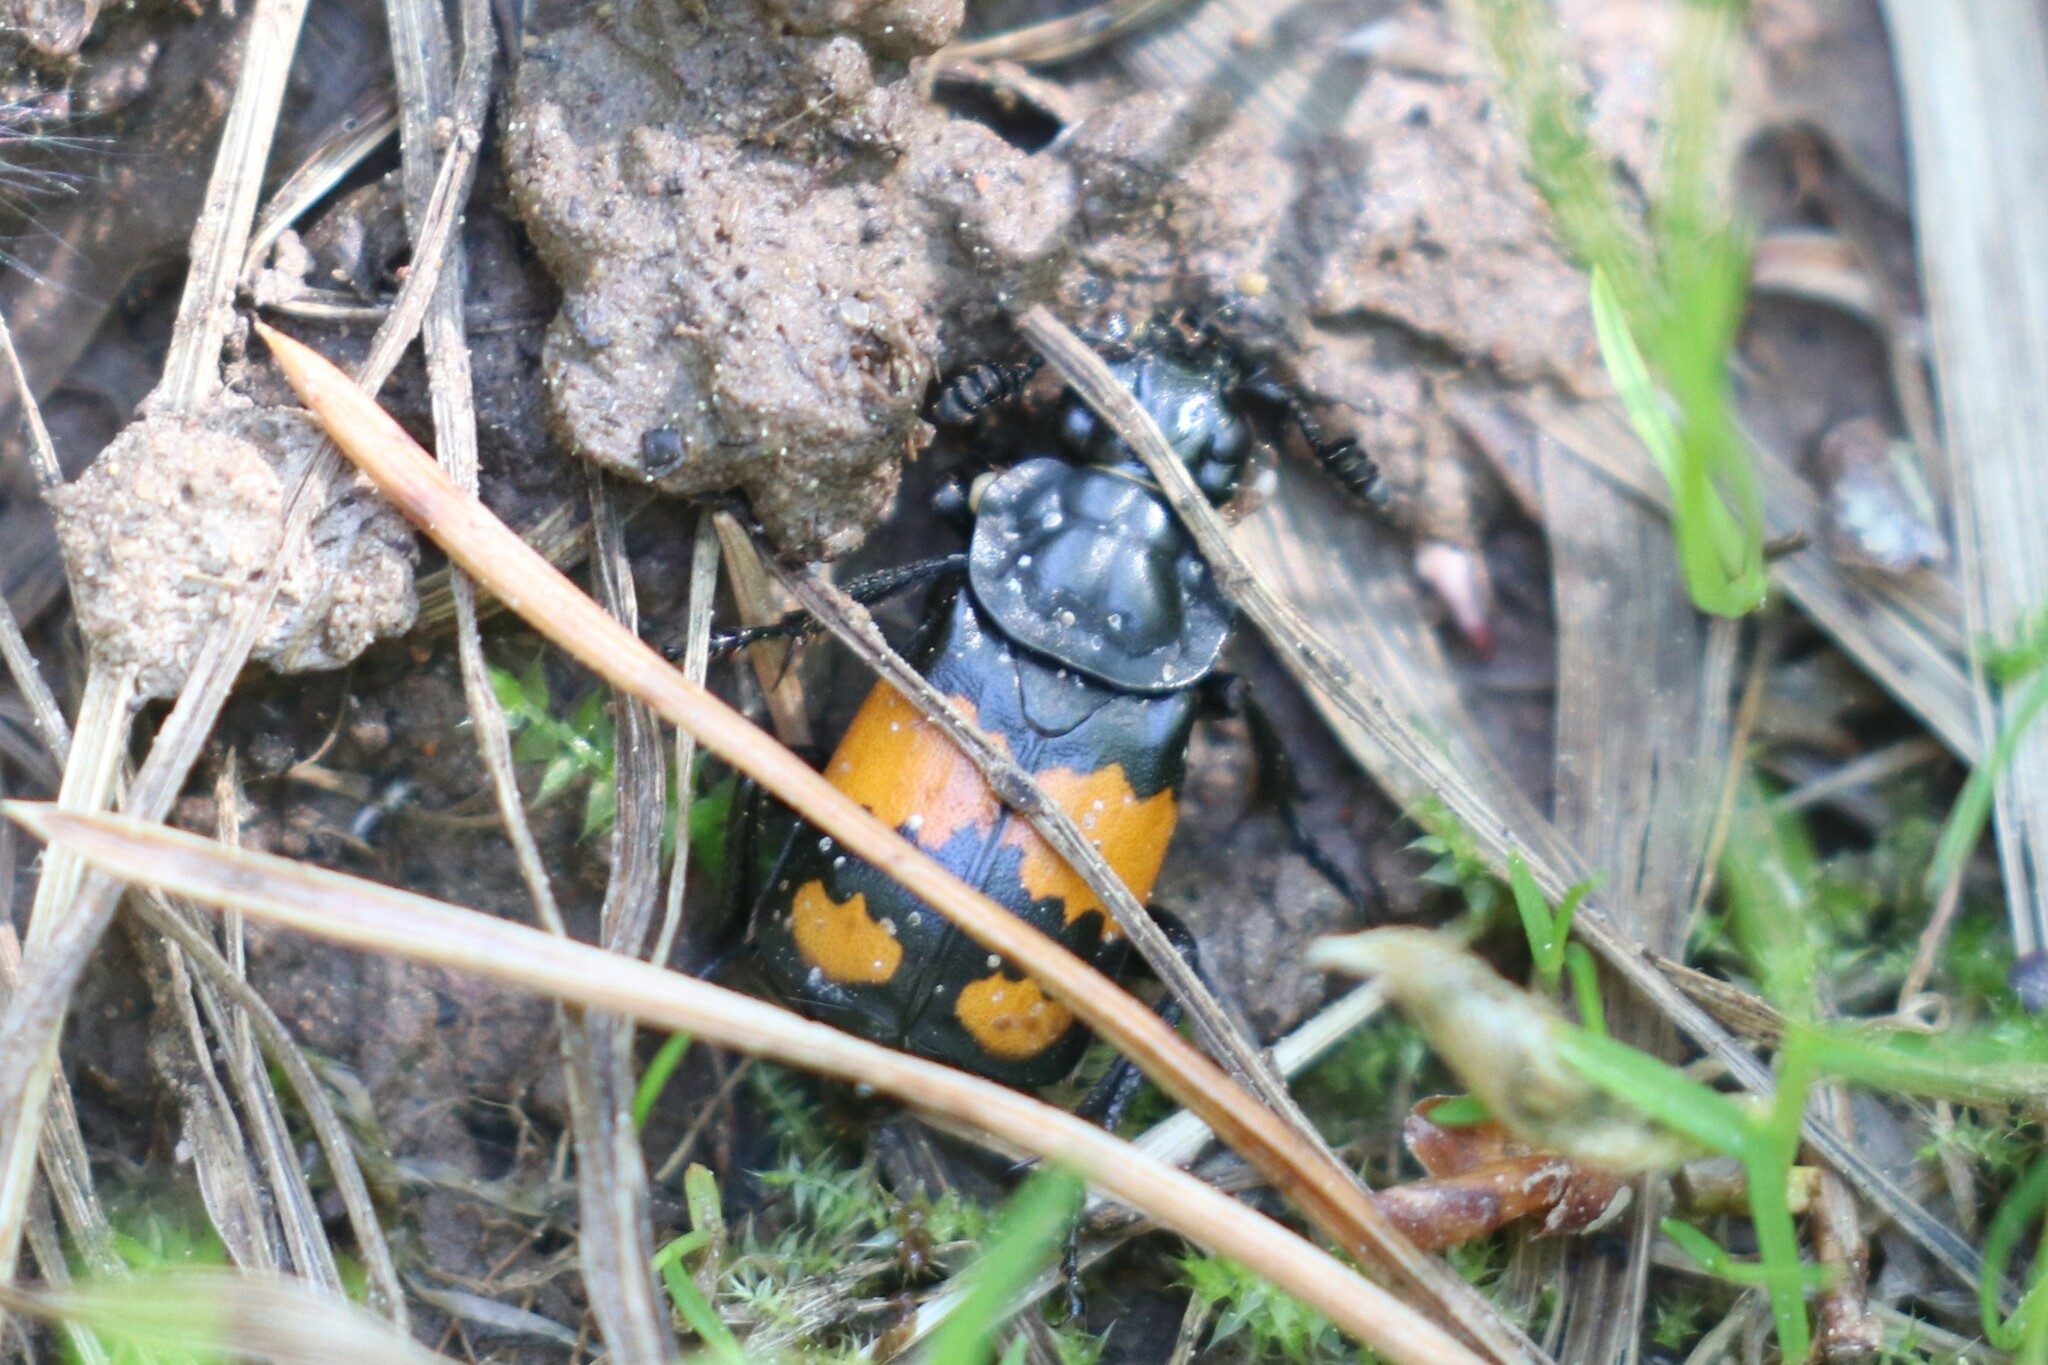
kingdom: Animalia
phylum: Arthropoda
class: Insecta
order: Coleoptera
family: Staphylinidae
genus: Nicrophorus
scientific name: Nicrophorus vespilloides
